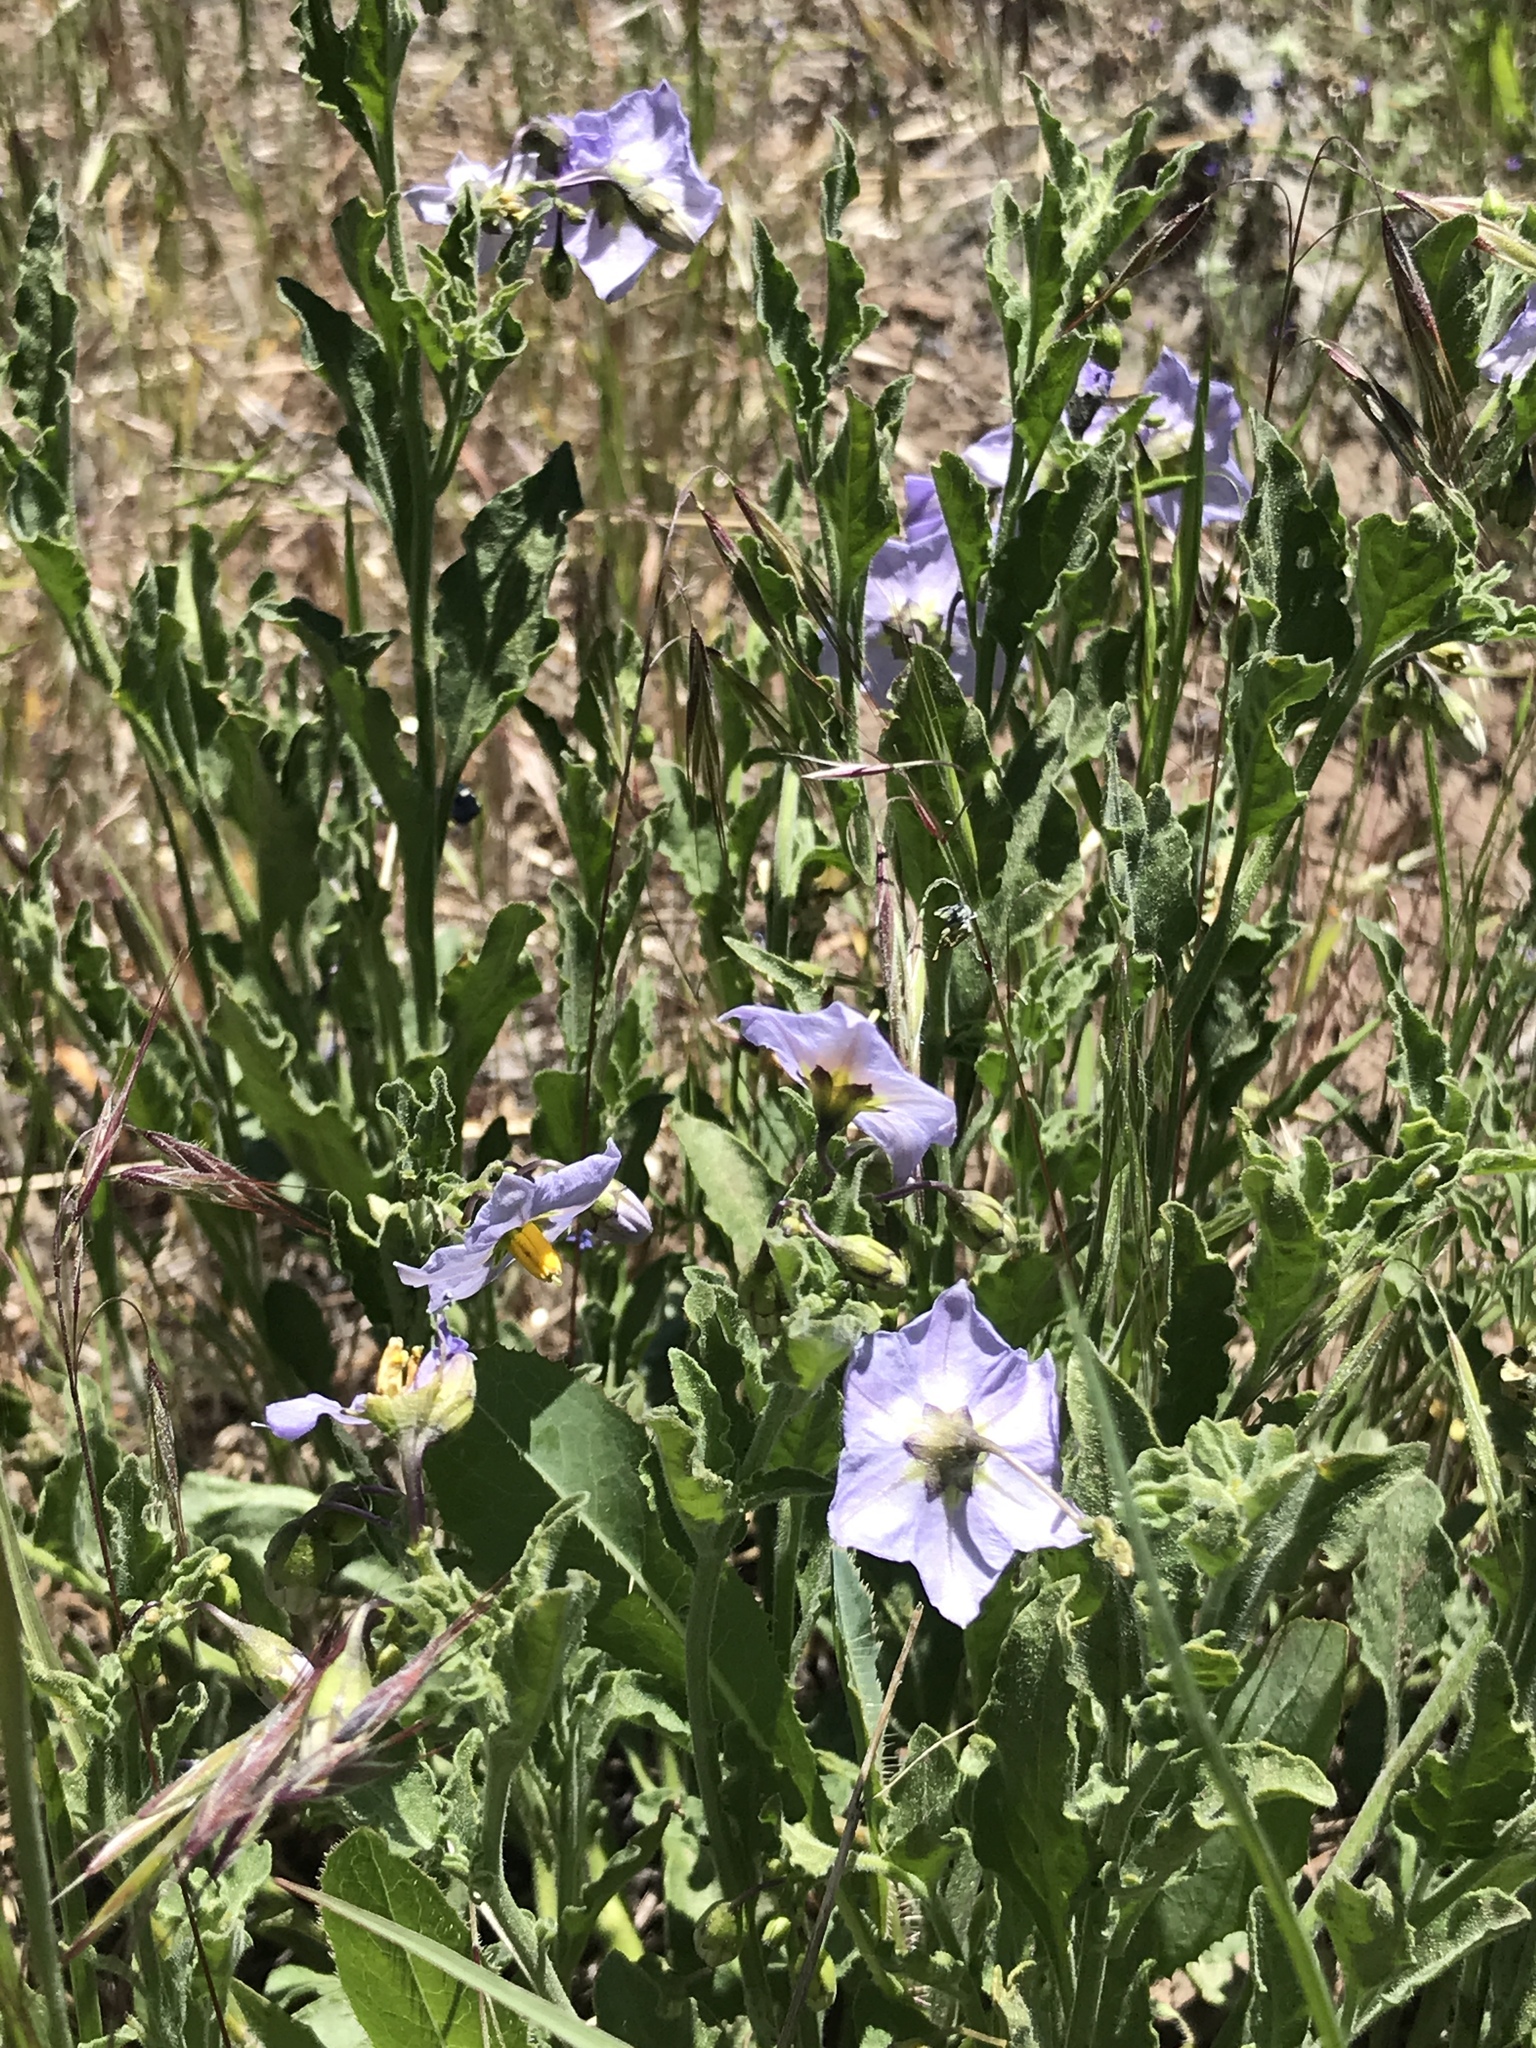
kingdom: Plantae
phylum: Tracheophyta
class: Magnoliopsida
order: Solanales
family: Solanaceae
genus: Solanum
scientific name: Solanum umbelliferum
